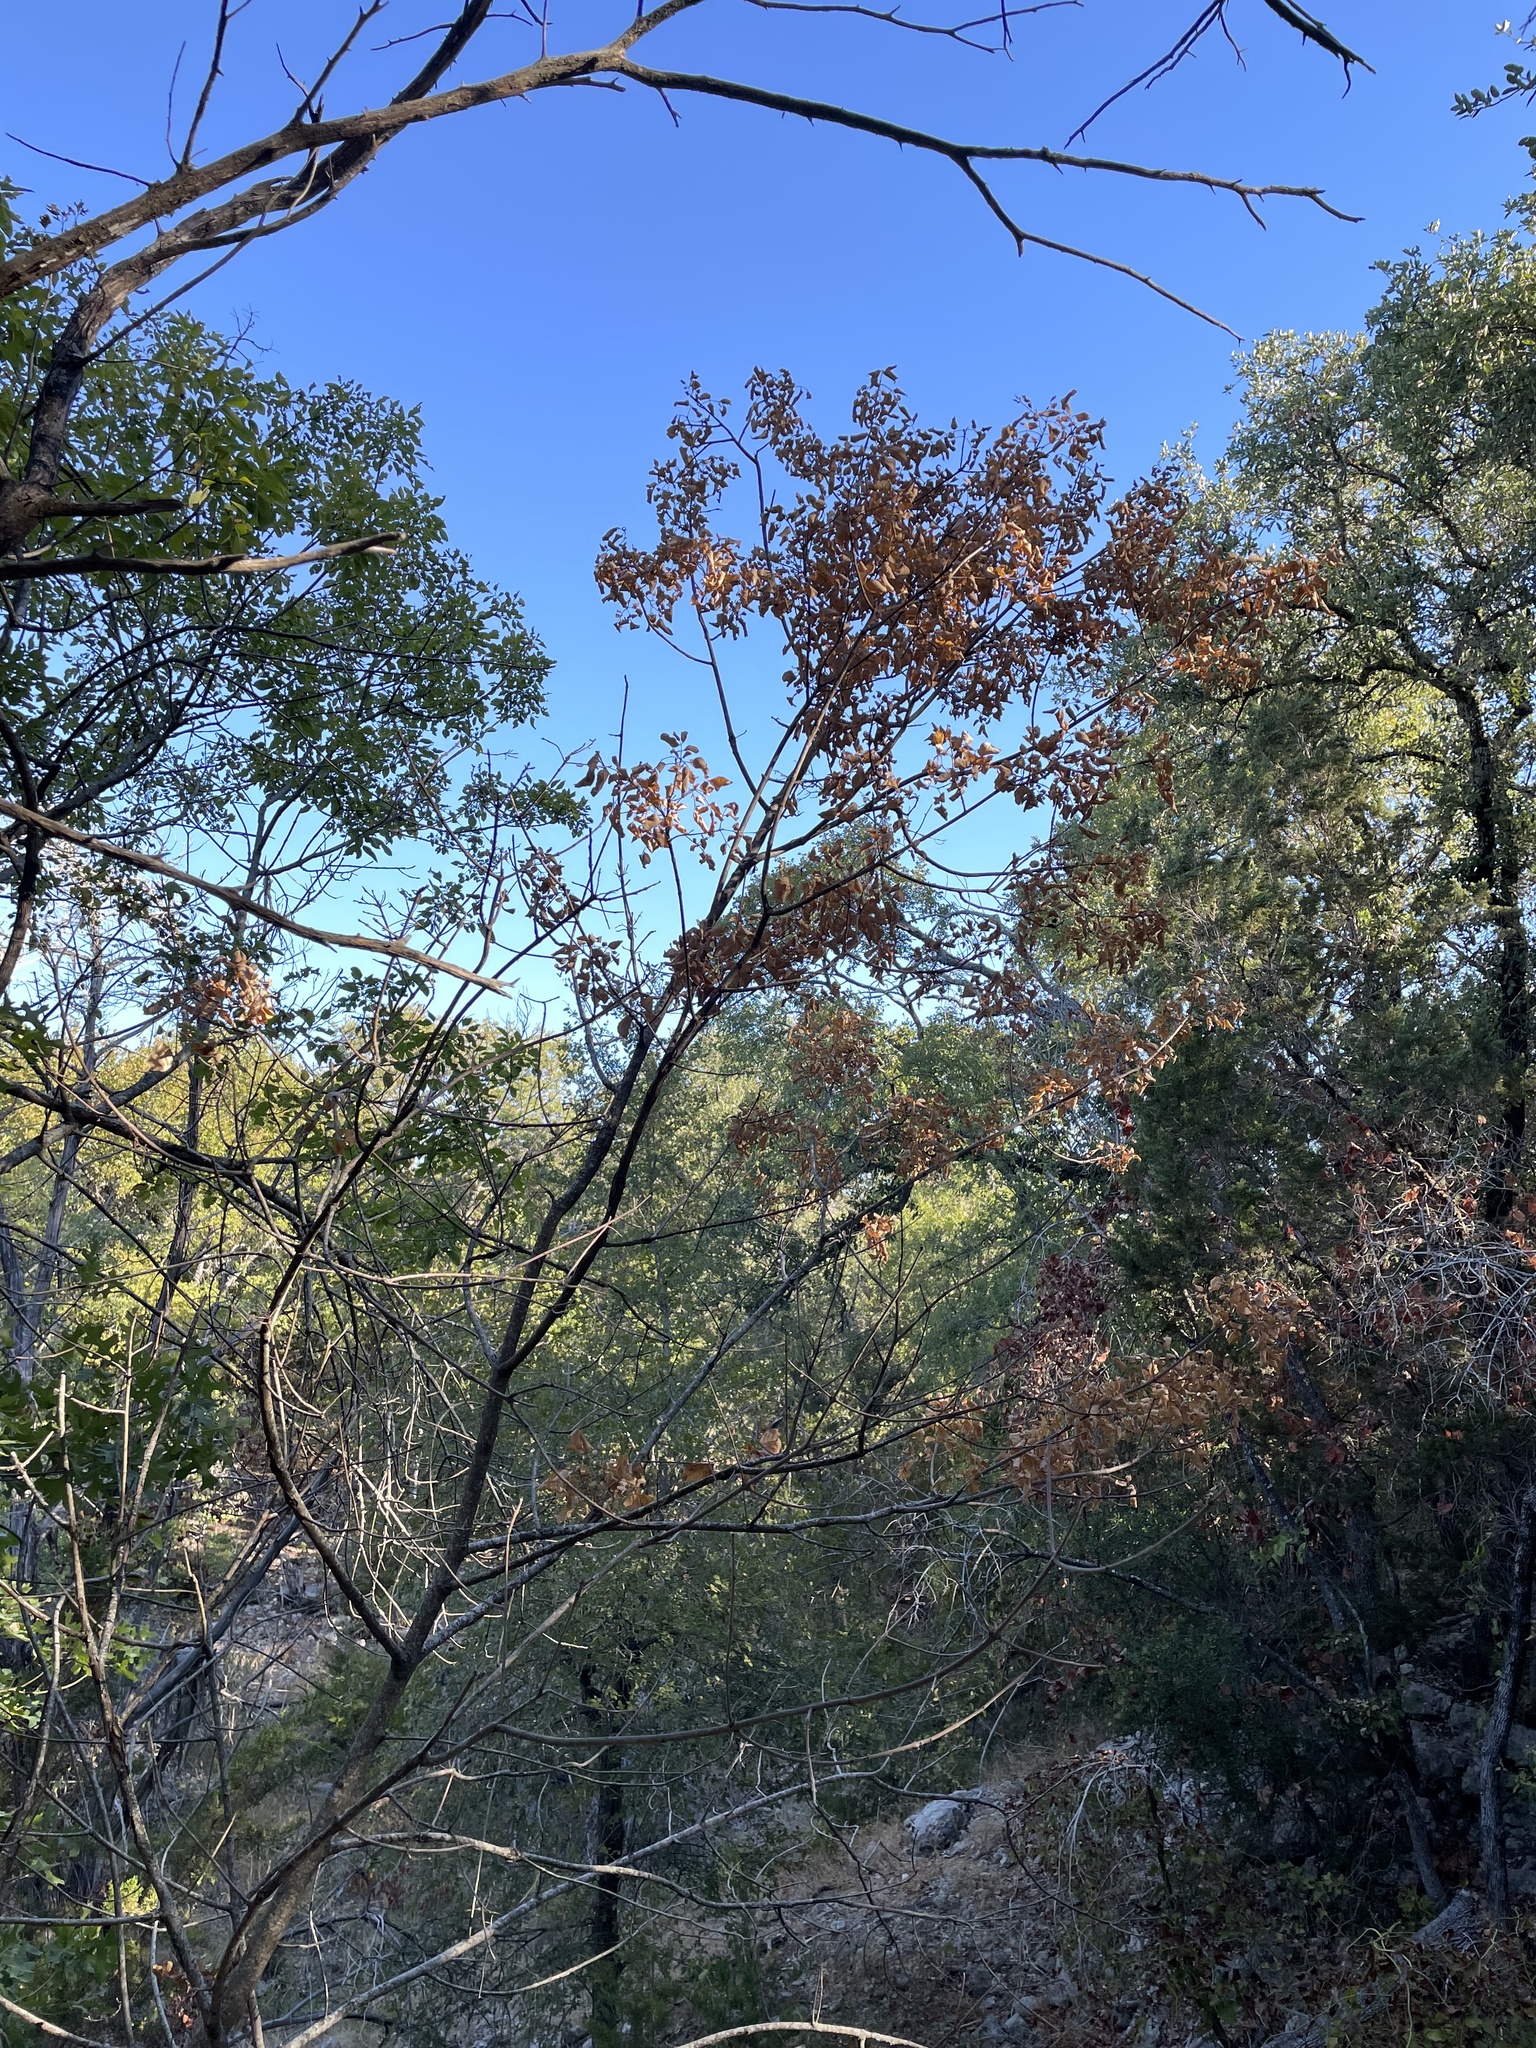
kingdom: Plantae
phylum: Tracheophyta
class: Magnoliopsida
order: Lamiales
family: Oleaceae
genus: Fraxinus
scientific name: Fraxinus albicans
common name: Texas ash
